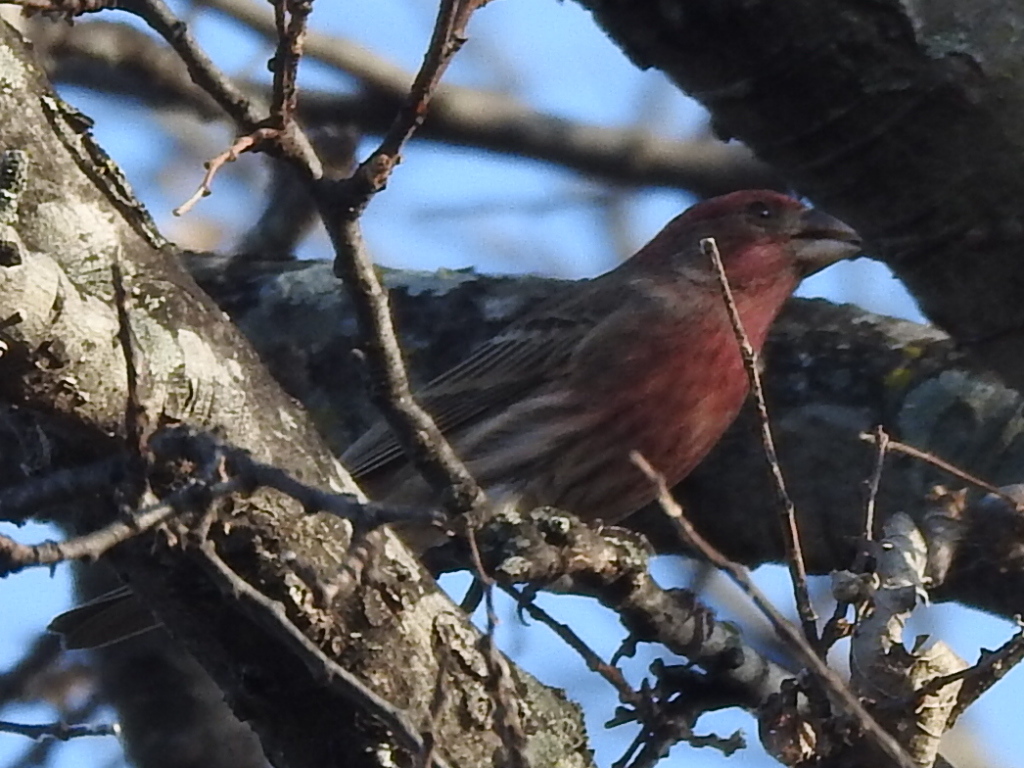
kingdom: Animalia
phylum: Chordata
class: Aves
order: Passeriformes
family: Fringillidae
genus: Haemorhous
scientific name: Haemorhous mexicanus
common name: House finch
